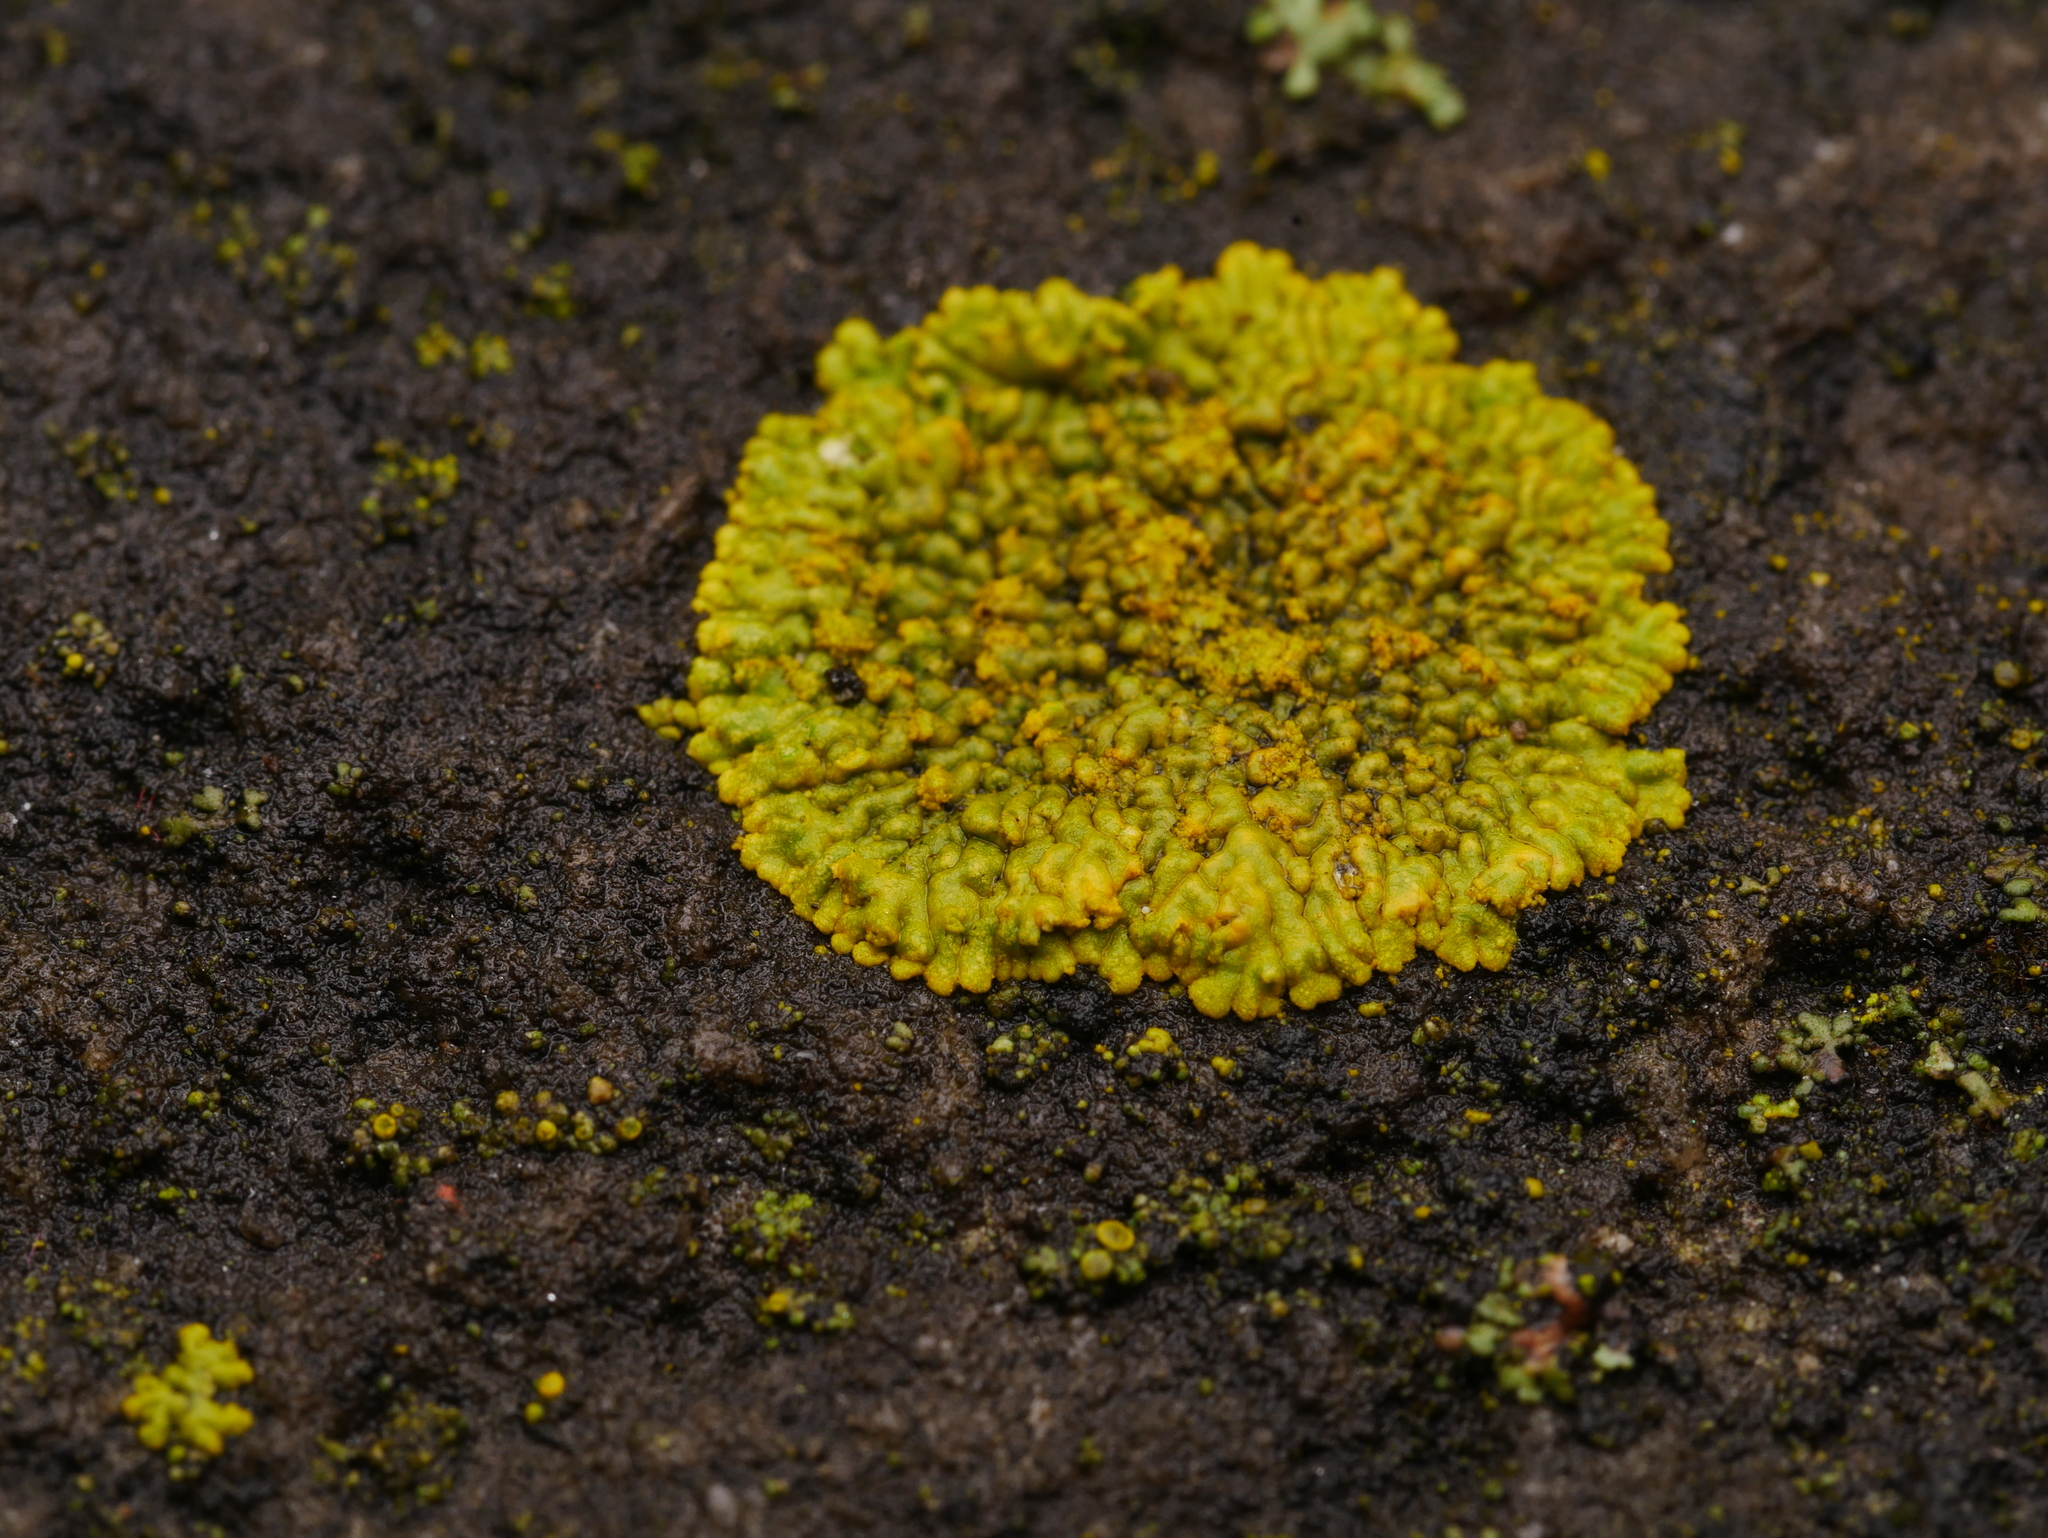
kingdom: Fungi
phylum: Ascomycota
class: Lecanoromycetes
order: Teloschistales
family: Teloschistaceae
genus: Calogaya
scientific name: Calogaya decipiens
